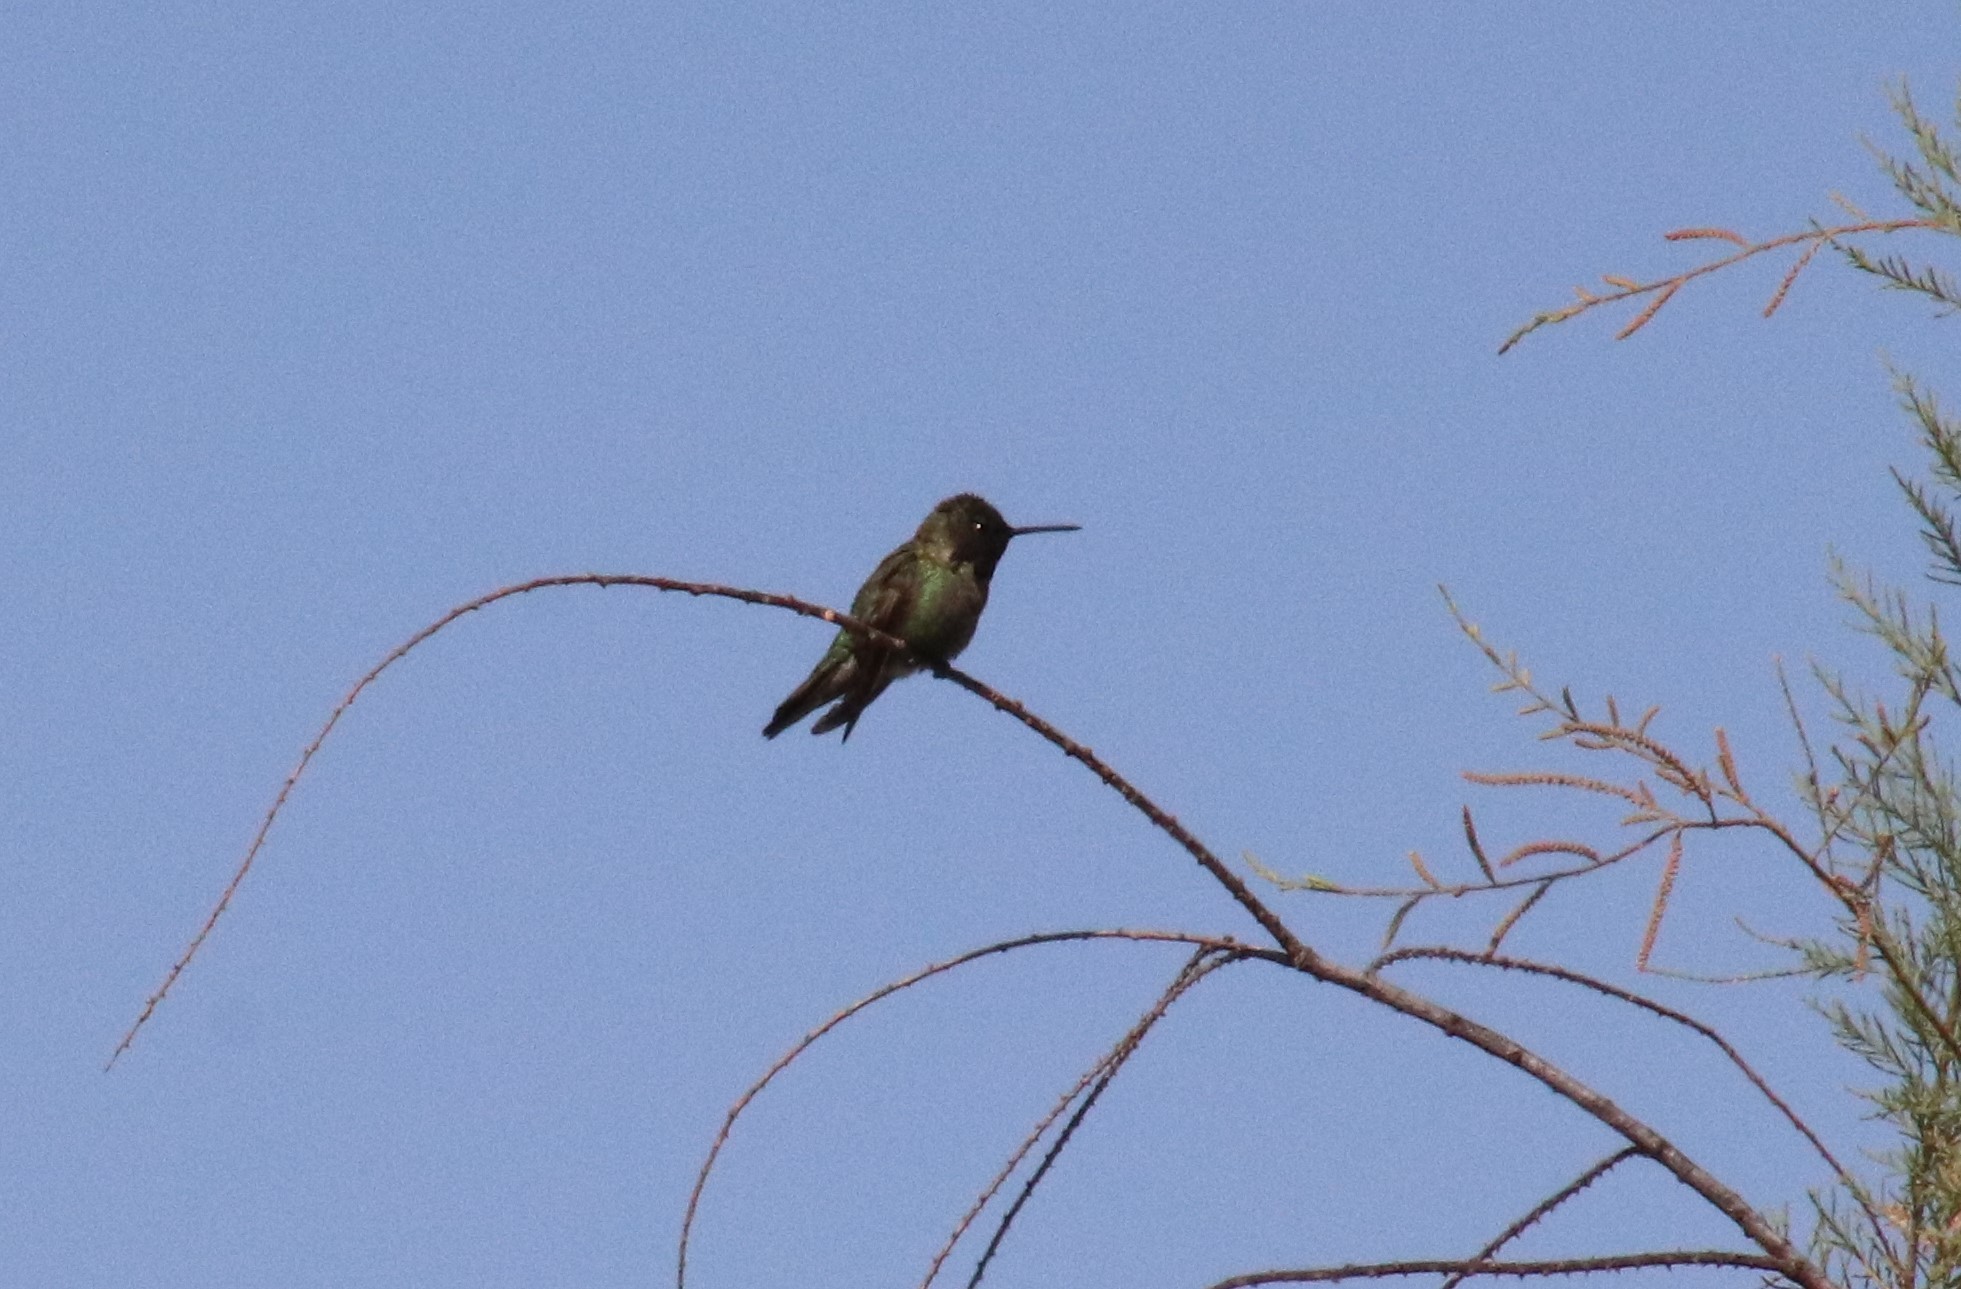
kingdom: Animalia
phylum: Chordata
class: Aves
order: Apodiformes
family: Trochilidae
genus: Calypte
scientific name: Calypte anna
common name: Anna's hummingbird
